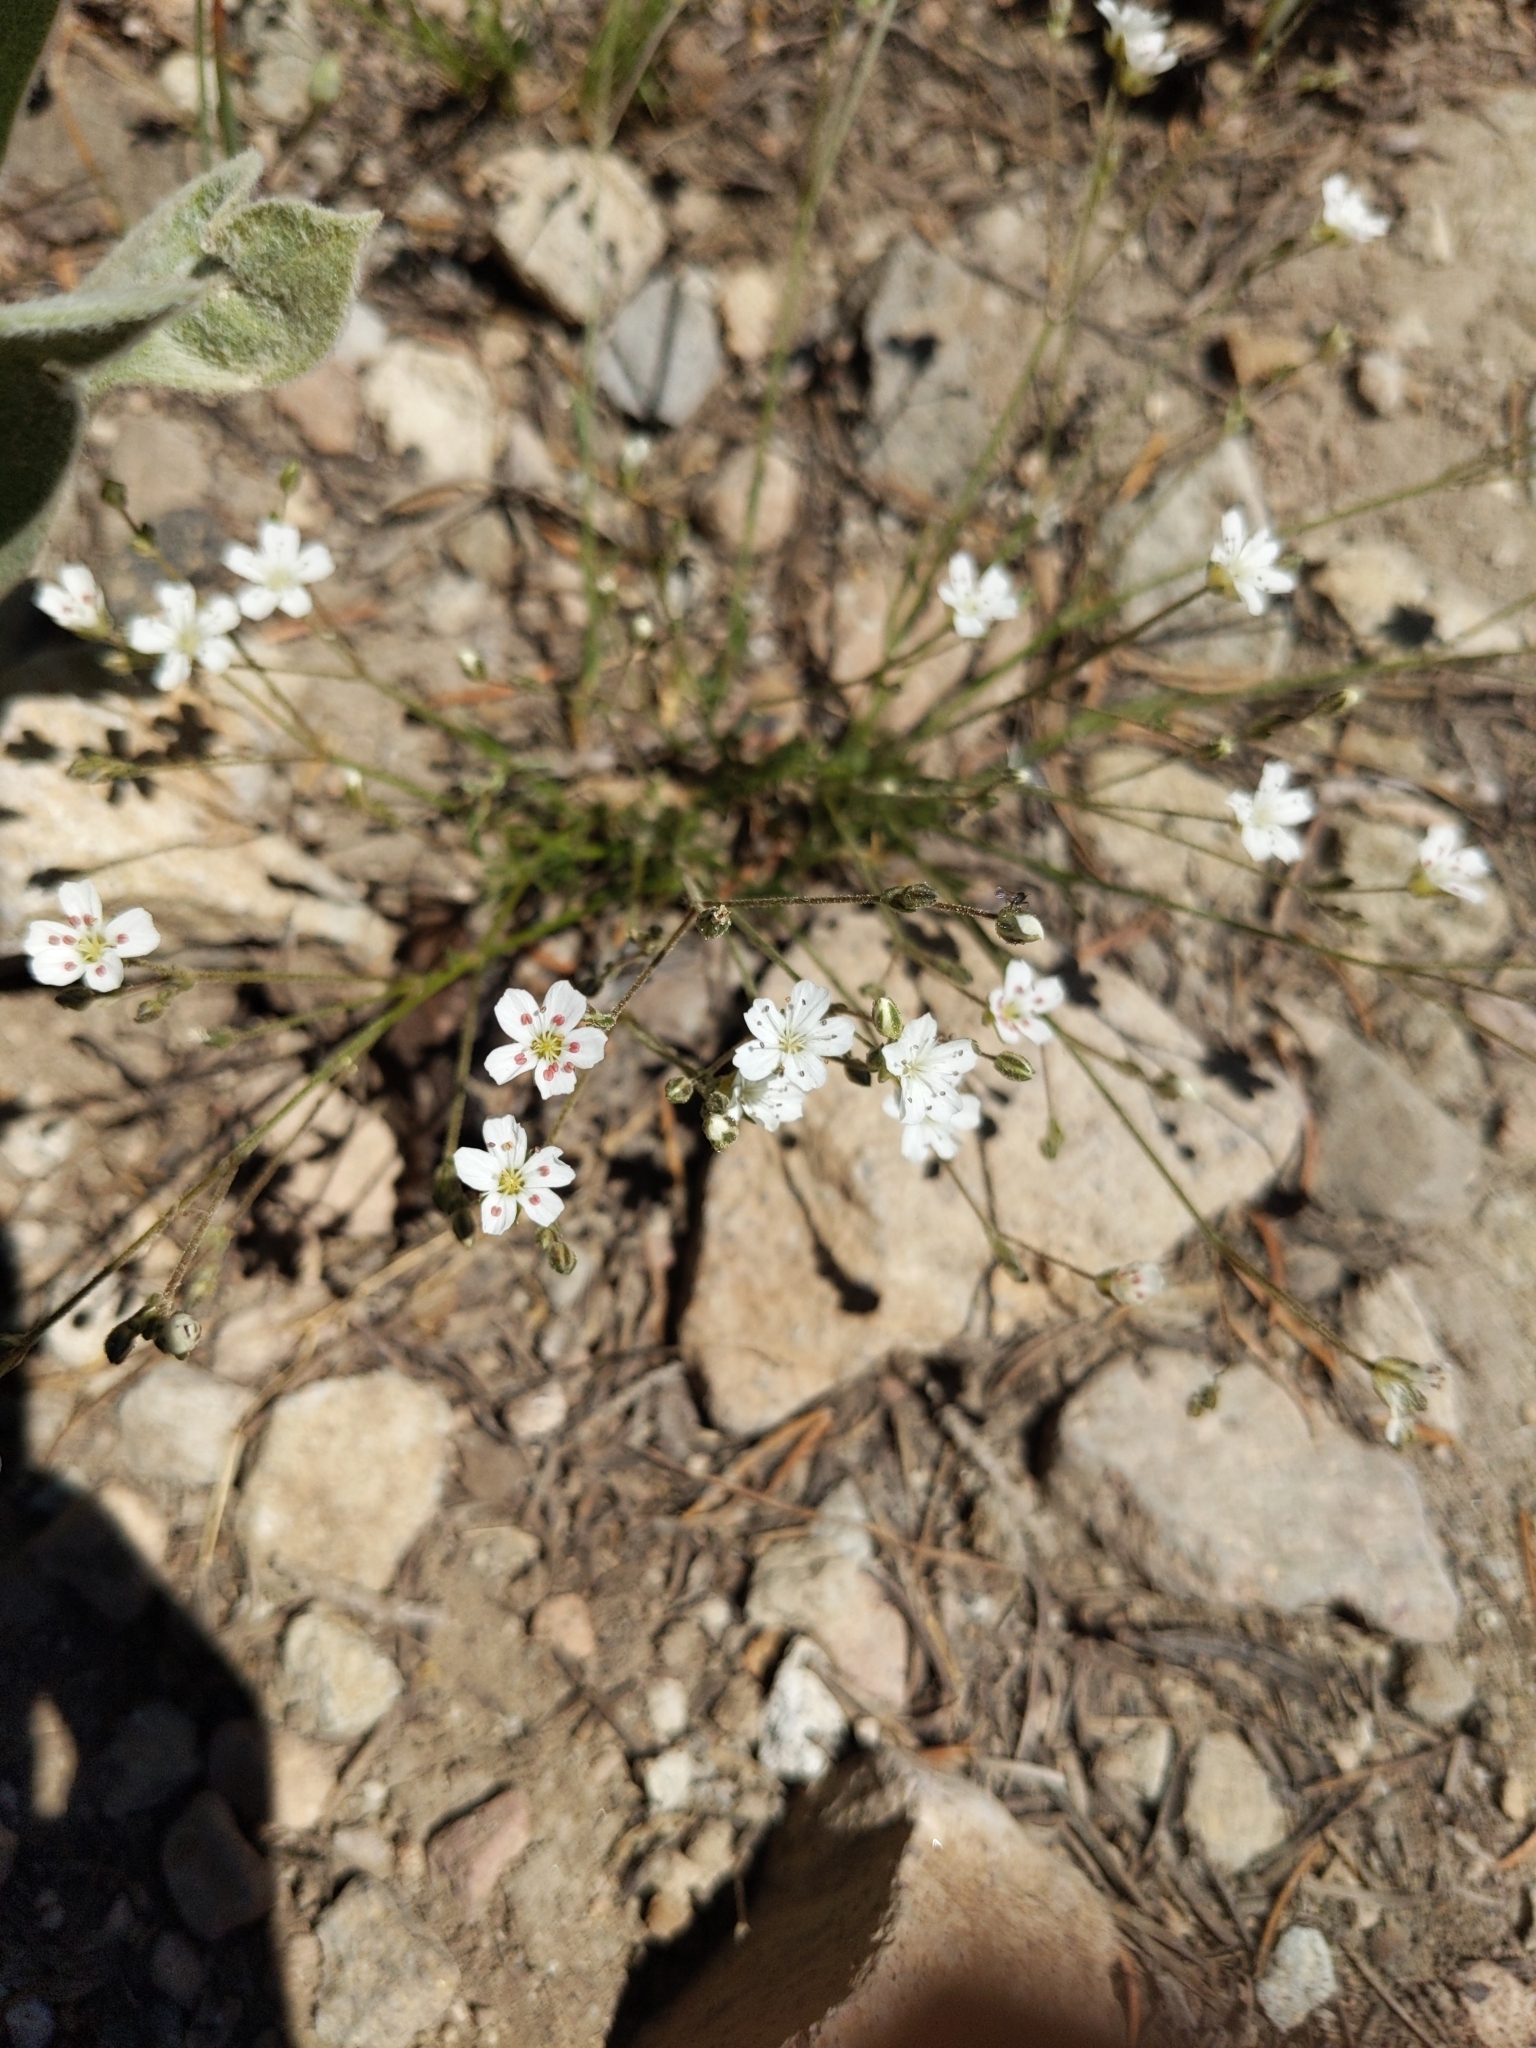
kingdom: Plantae
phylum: Tracheophyta
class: Magnoliopsida
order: Caryophyllales
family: Caryophyllaceae
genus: Eremogone
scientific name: Eremogone kingii
